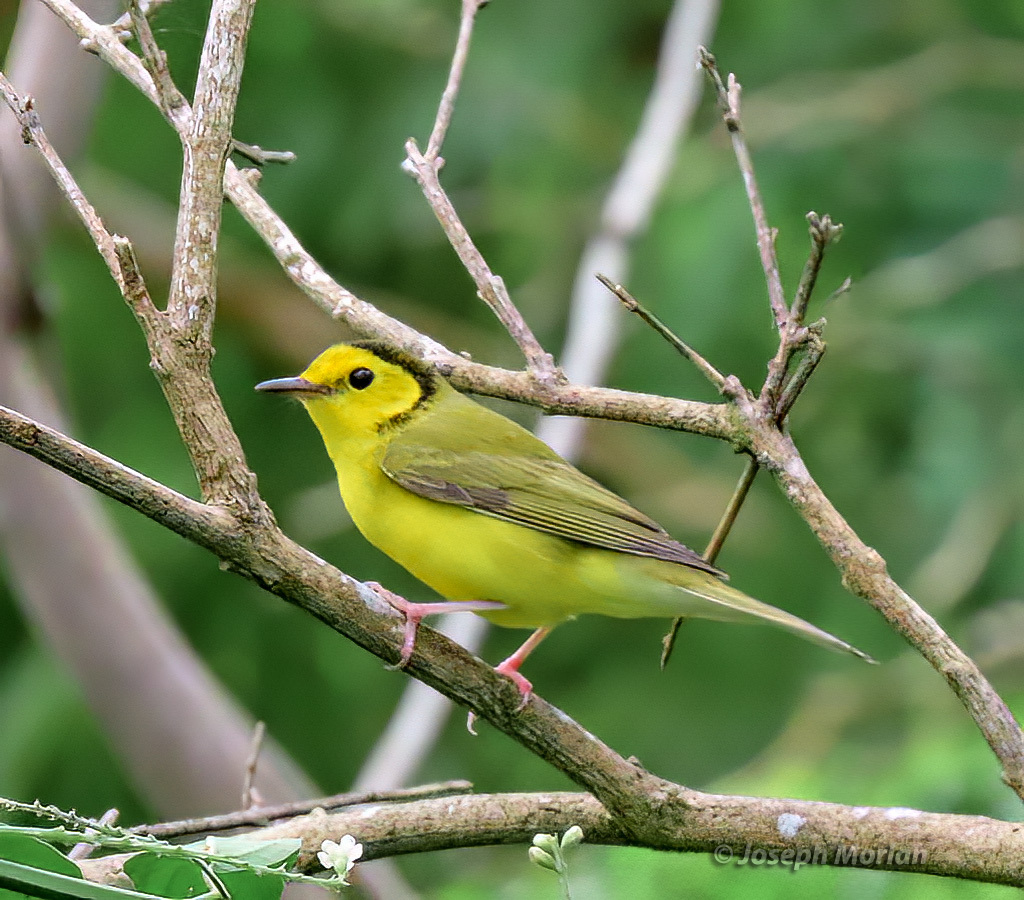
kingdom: Animalia
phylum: Chordata
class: Aves
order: Passeriformes
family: Parulidae
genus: Setophaga
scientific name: Setophaga citrina
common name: Hooded warbler
